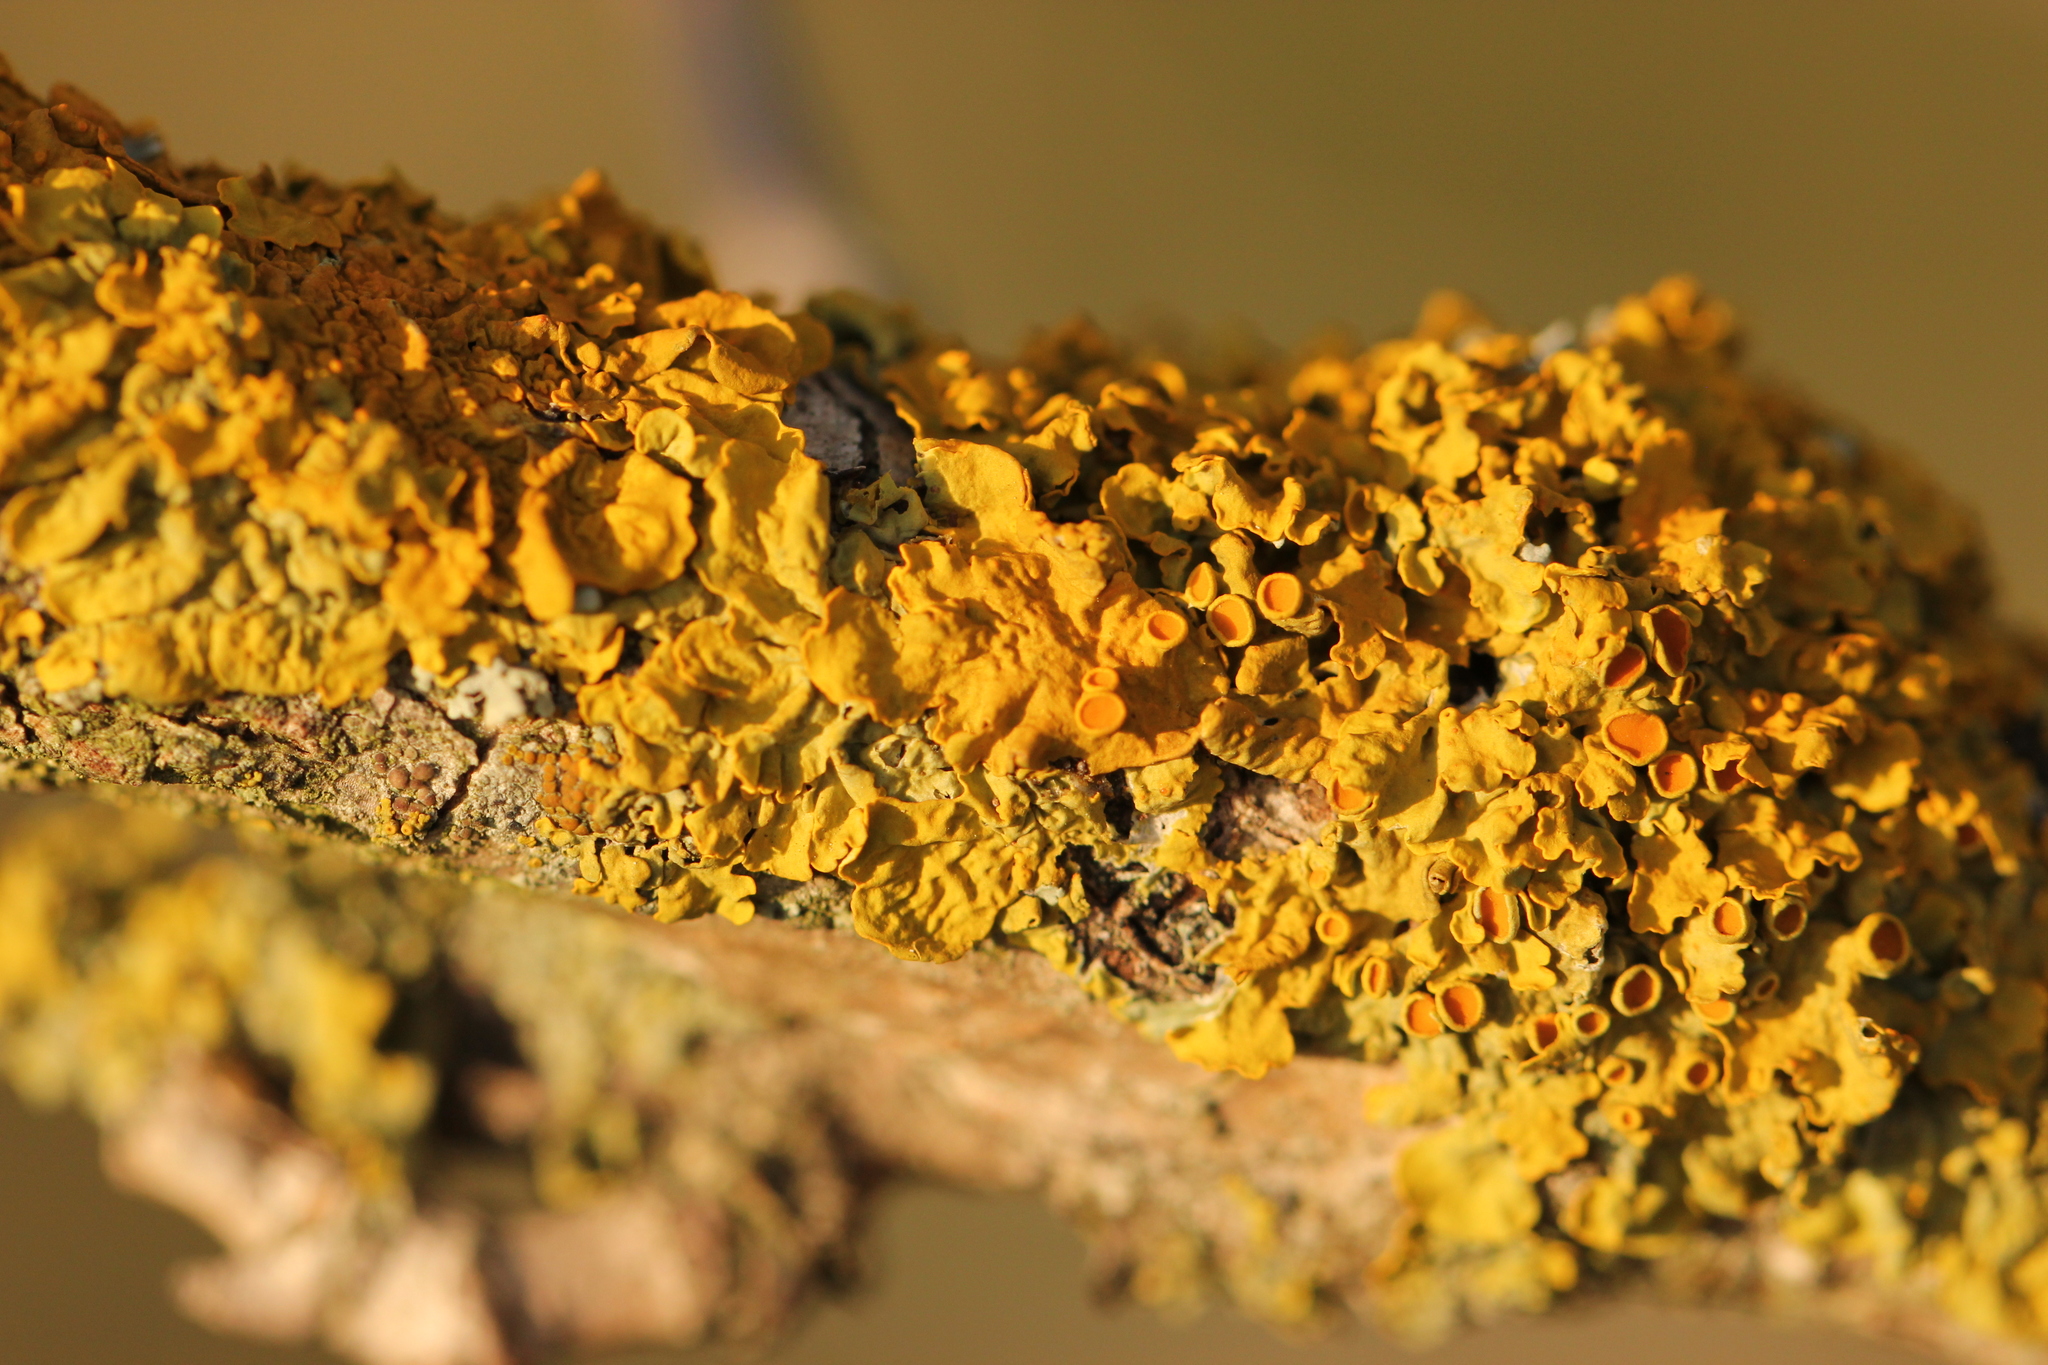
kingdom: Fungi
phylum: Ascomycota
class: Lecanoromycetes
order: Teloschistales
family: Teloschistaceae
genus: Xanthoria
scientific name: Xanthoria parietina
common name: Common orange lichen
